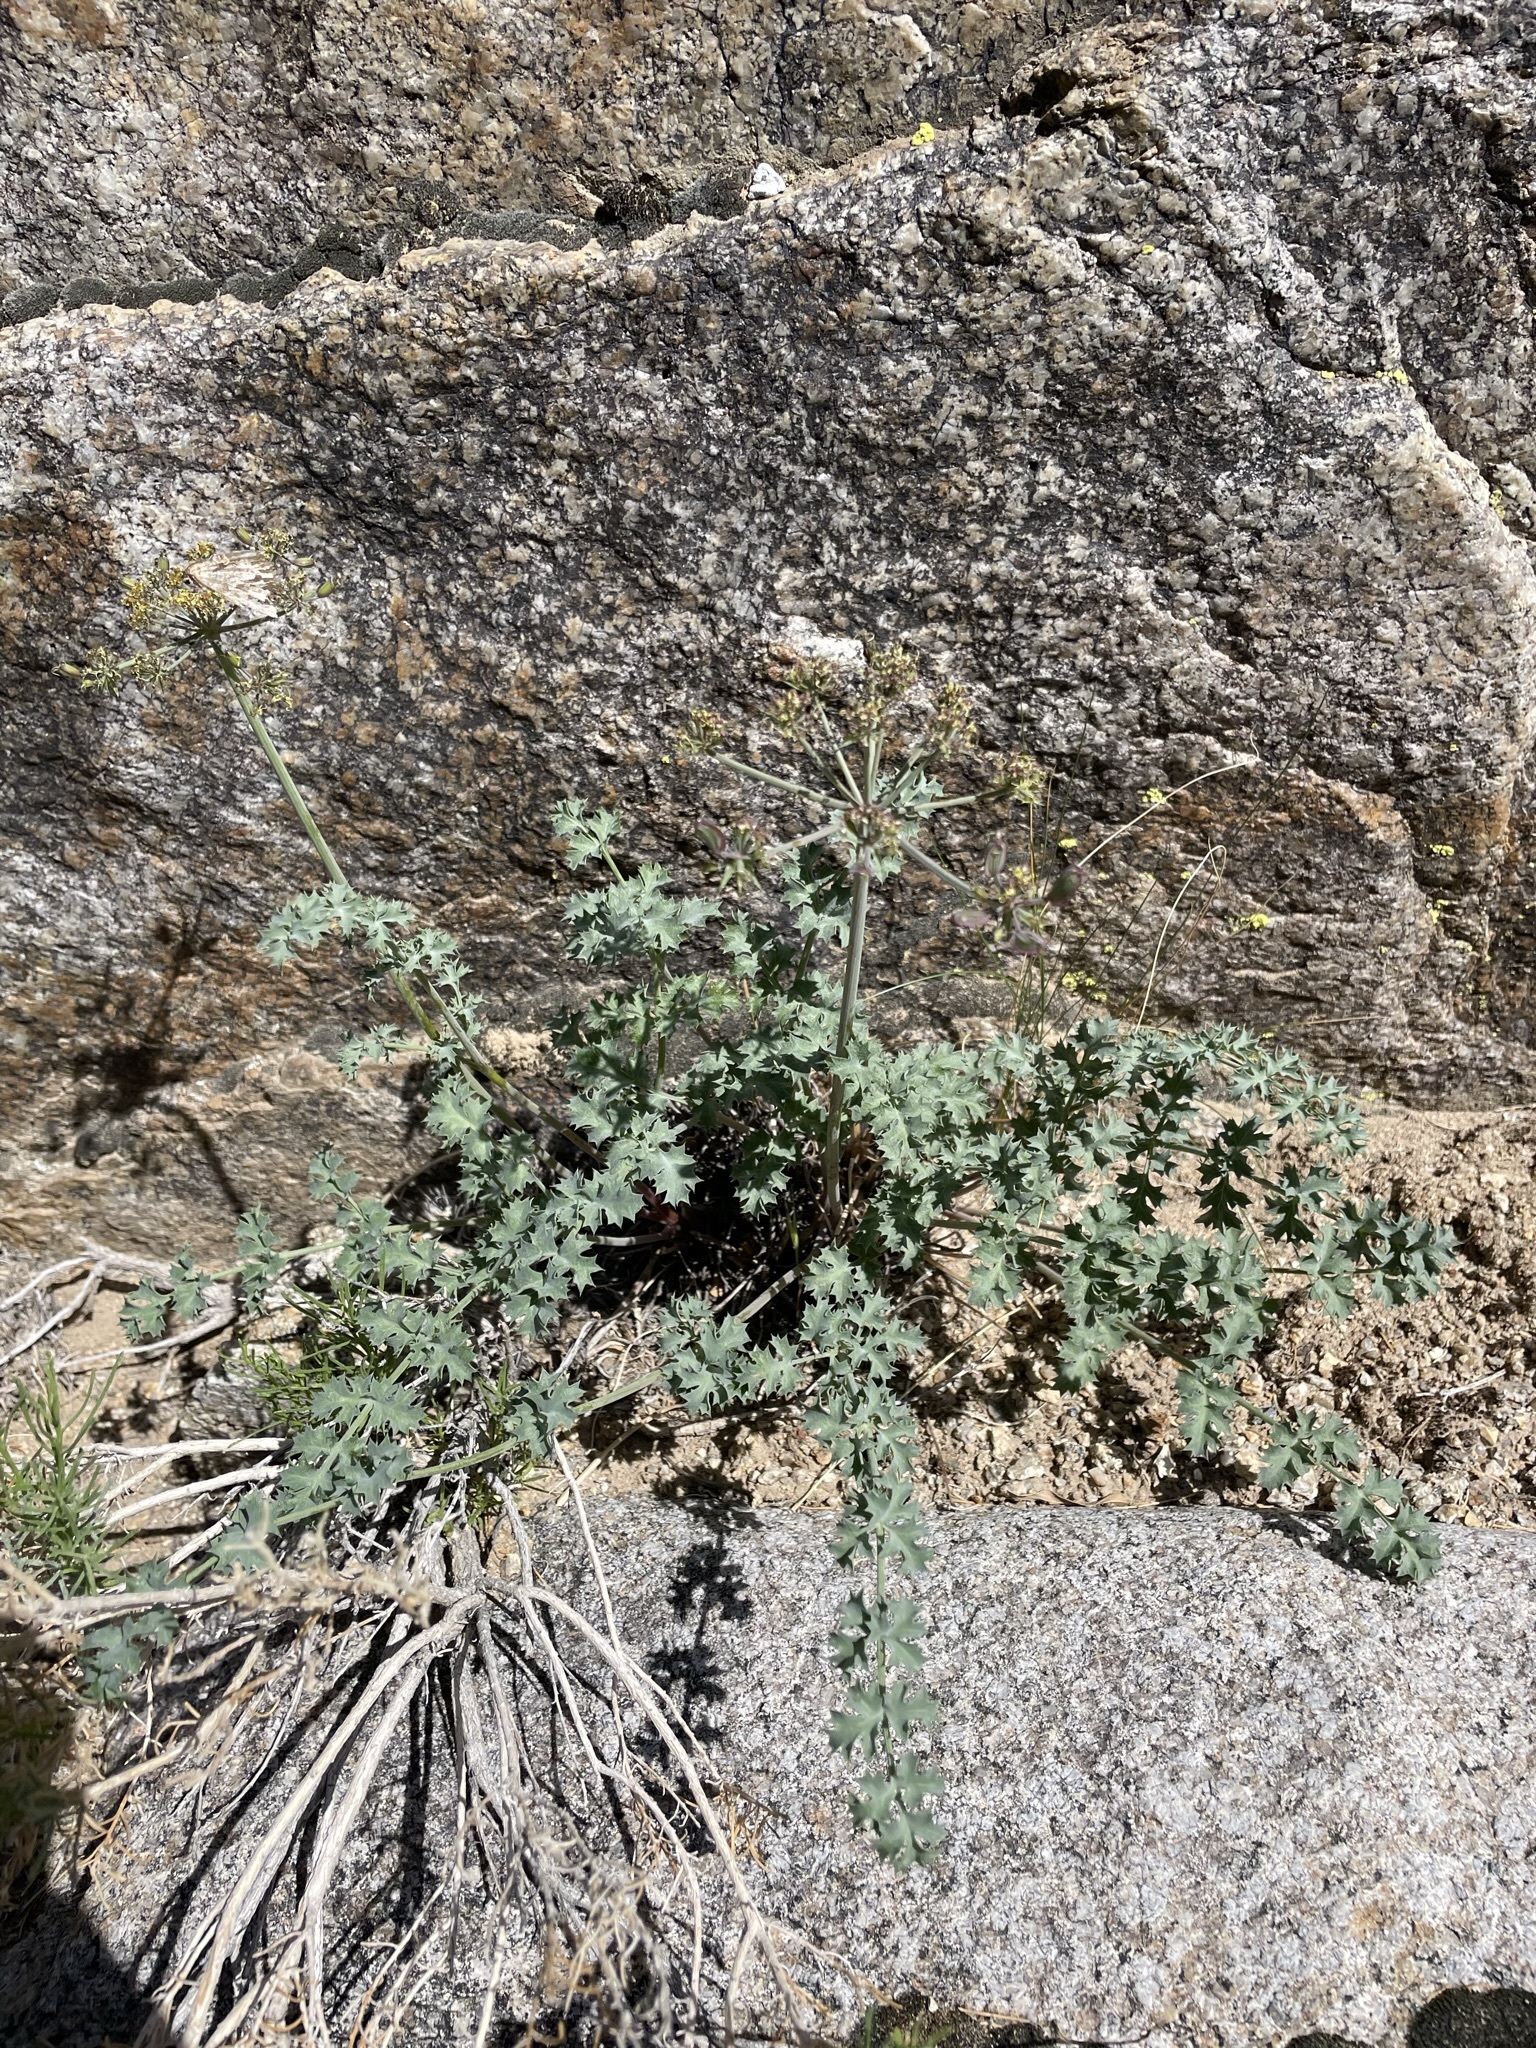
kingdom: Plantae
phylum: Tracheophyta
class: Magnoliopsida
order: Apiales
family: Apiaceae
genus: Lomatium
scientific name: Lomatium rigidum
